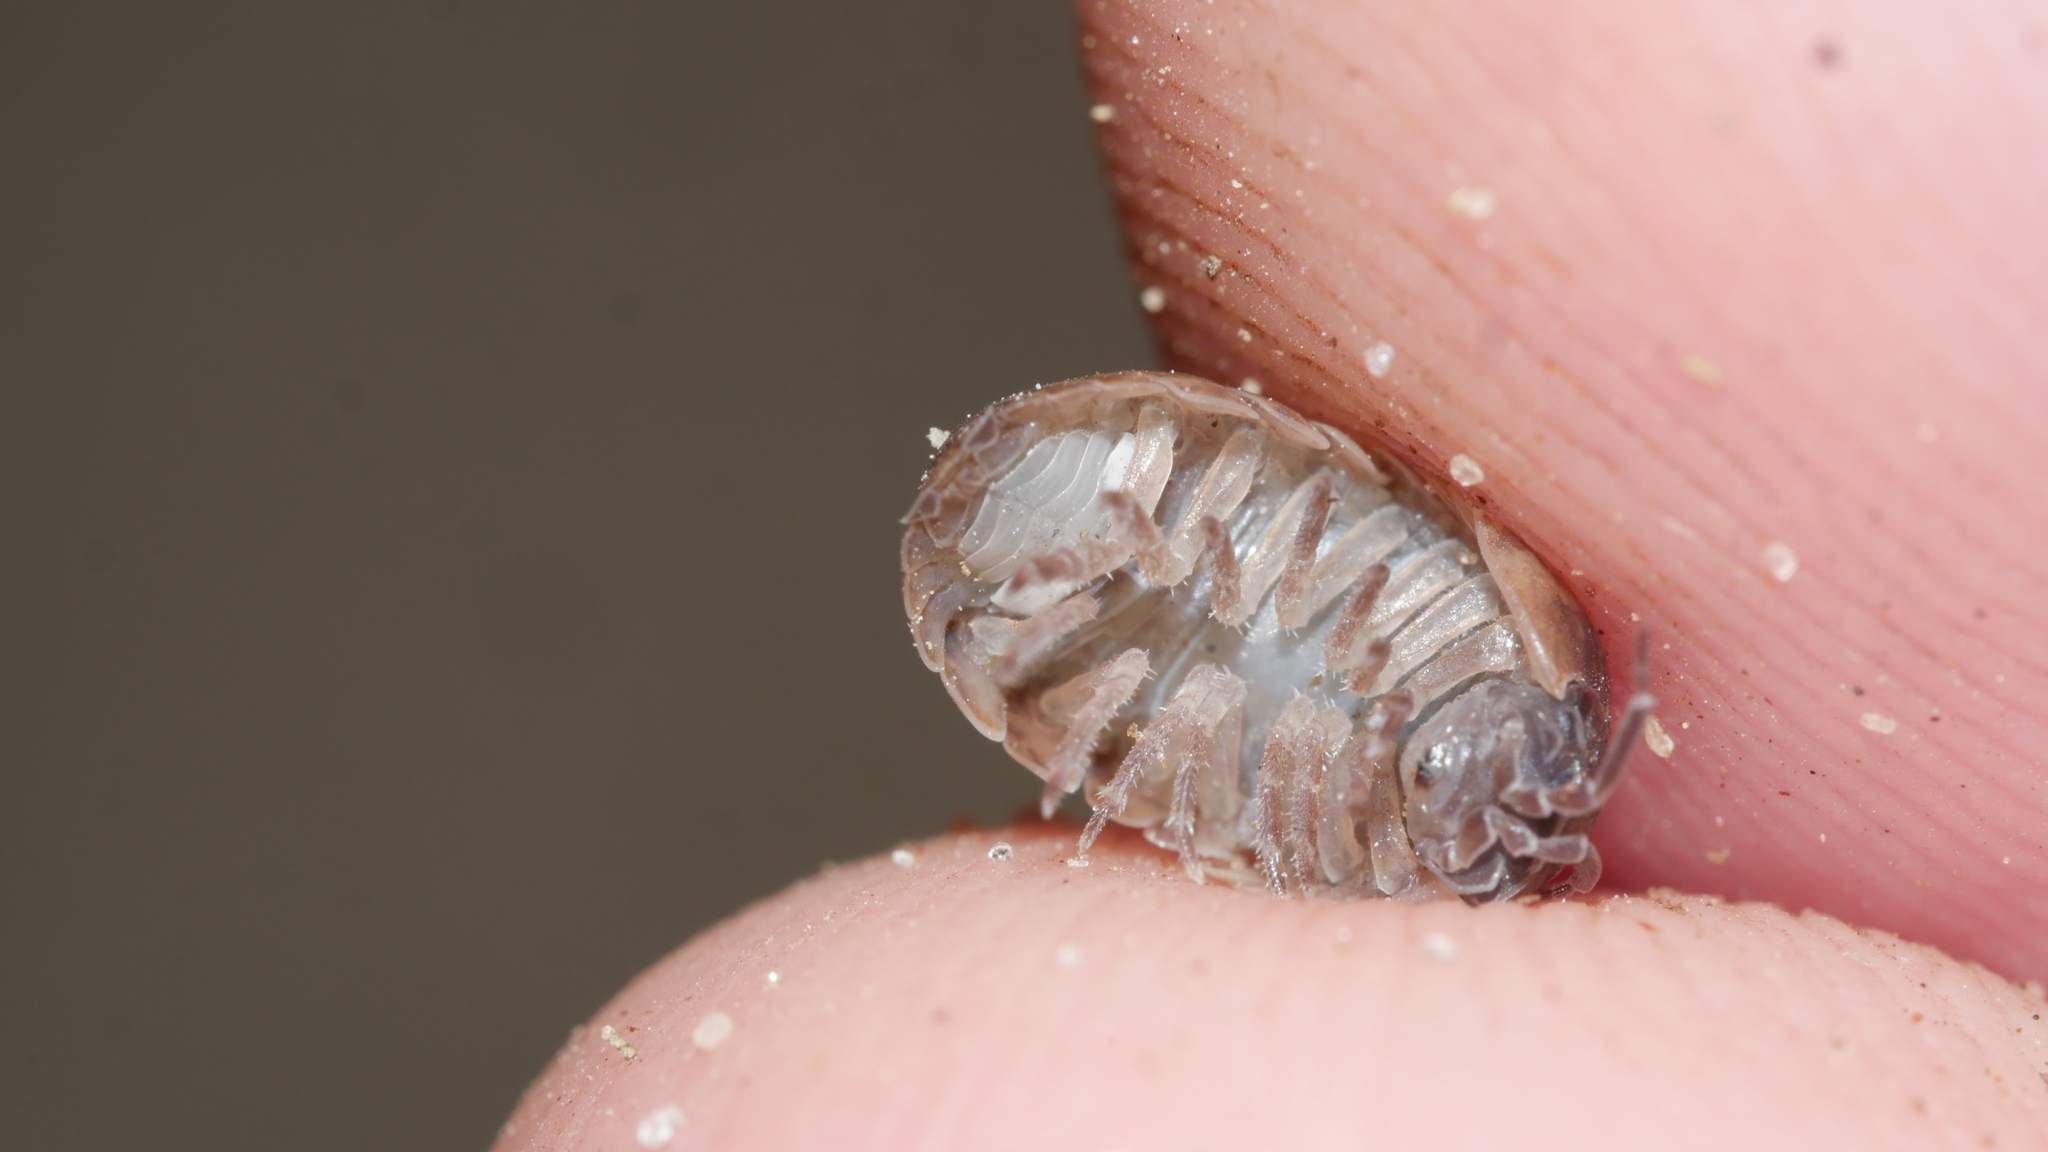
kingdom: Animalia
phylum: Arthropoda
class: Malacostraca
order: Isopoda
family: Armadillidiidae
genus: Armadillidium
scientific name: Armadillidium vulgare
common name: Common pill woodlouse
